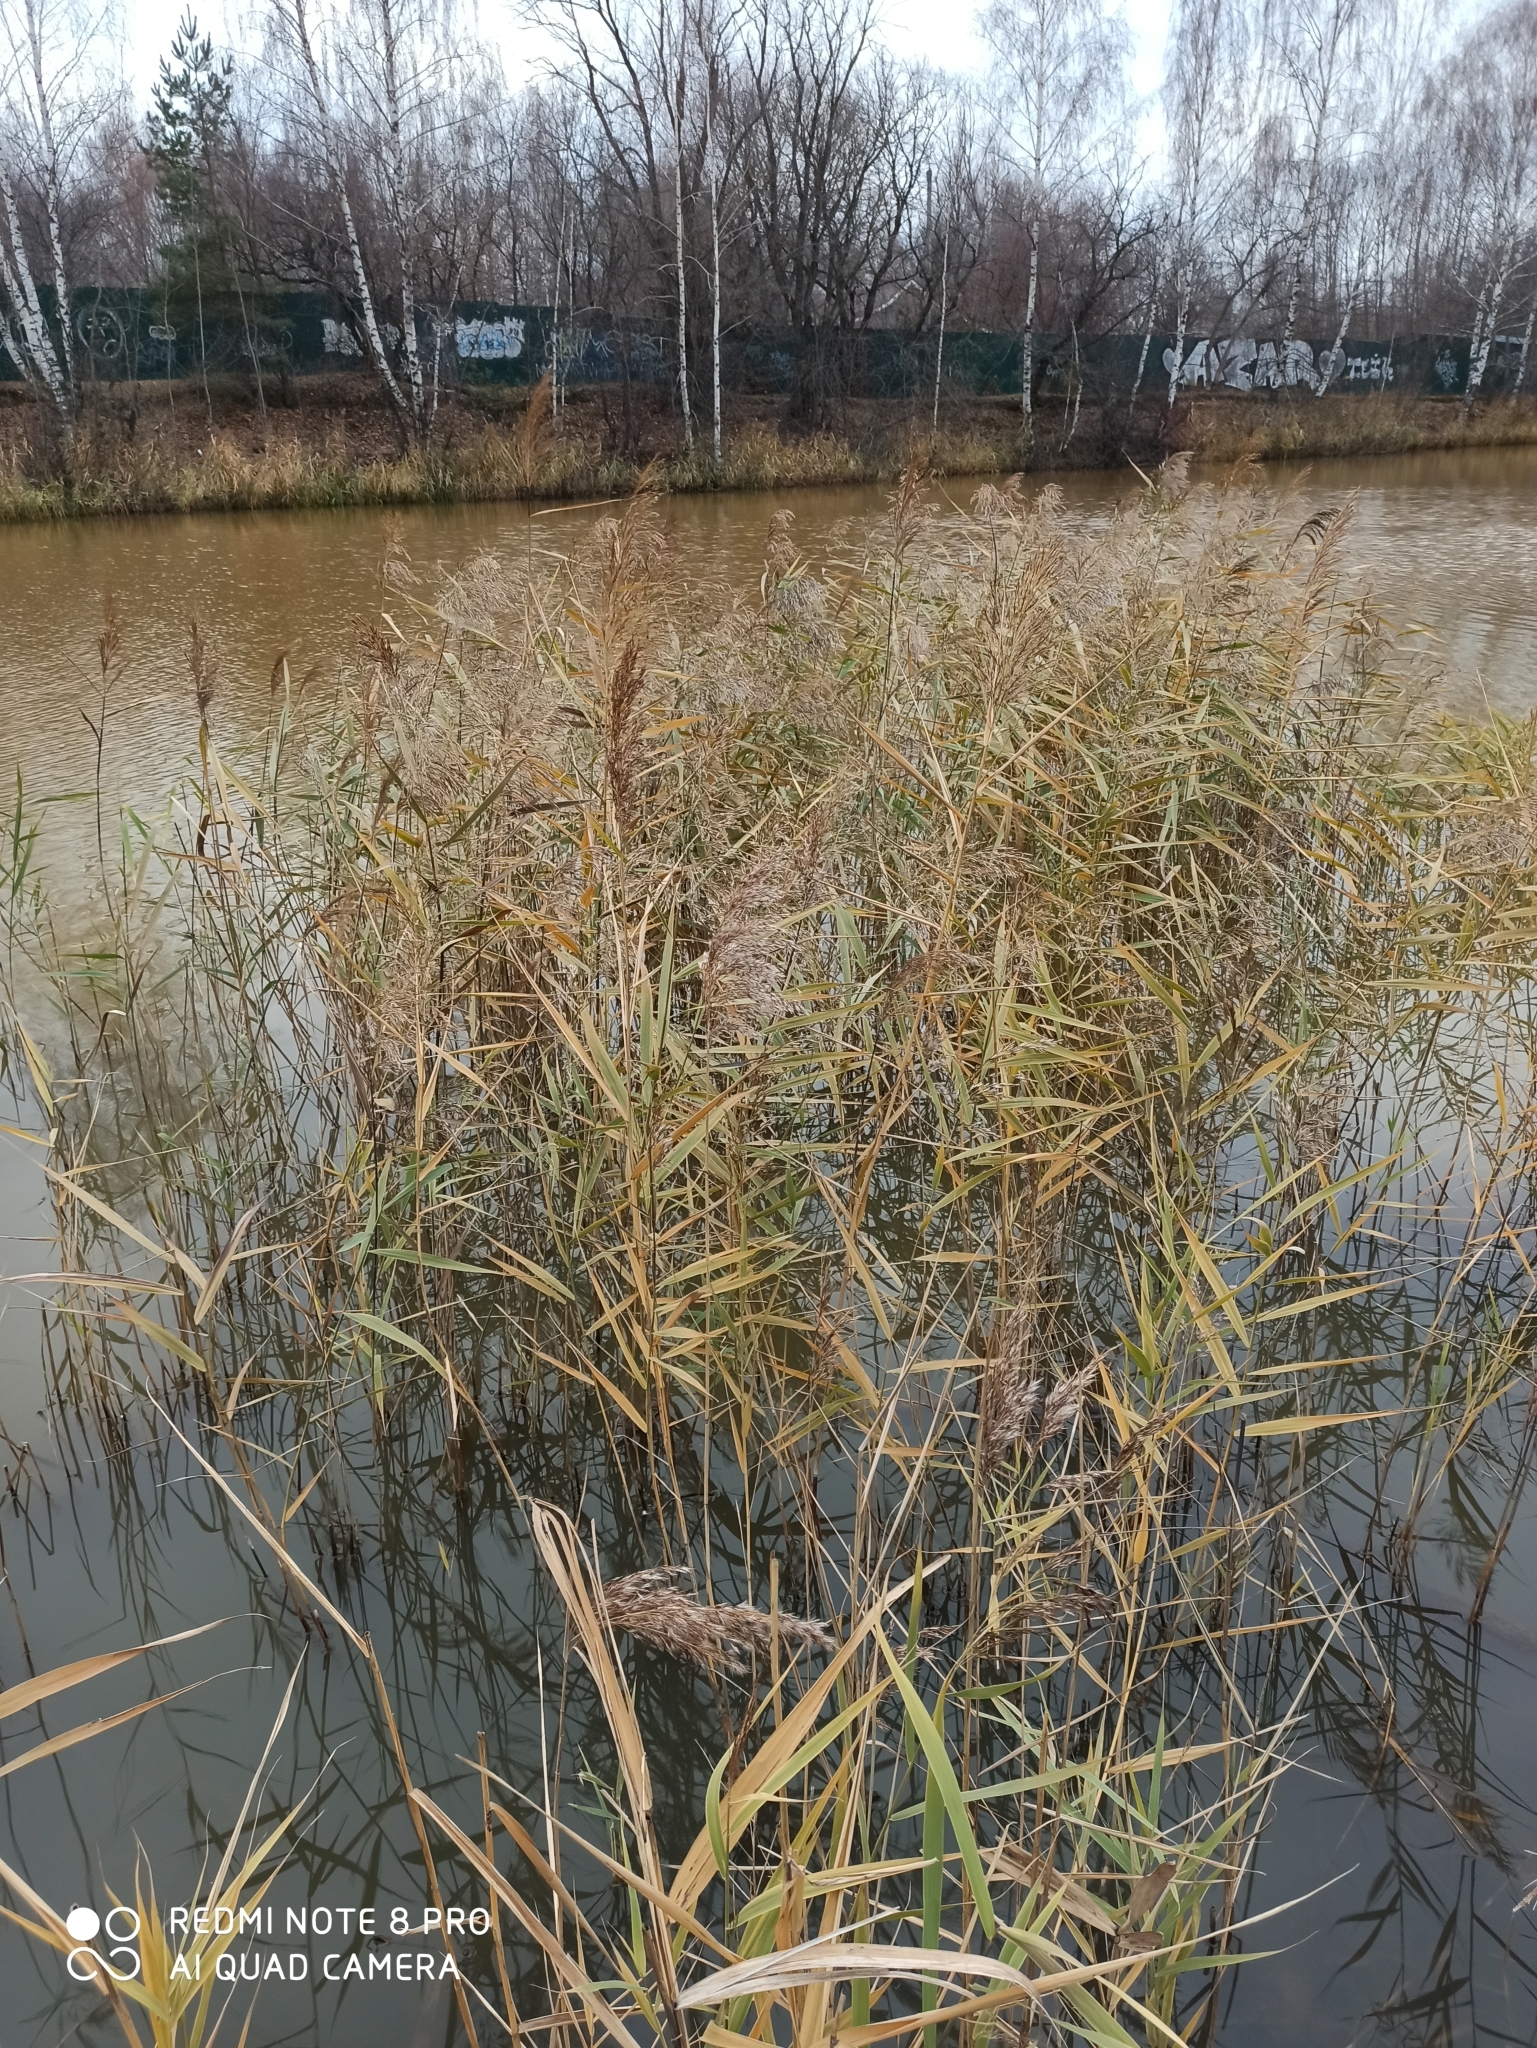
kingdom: Plantae
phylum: Tracheophyta
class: Liliopsida
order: Poales
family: Poaceae
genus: Phragmites
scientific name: Phragmites australis
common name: Common reed
